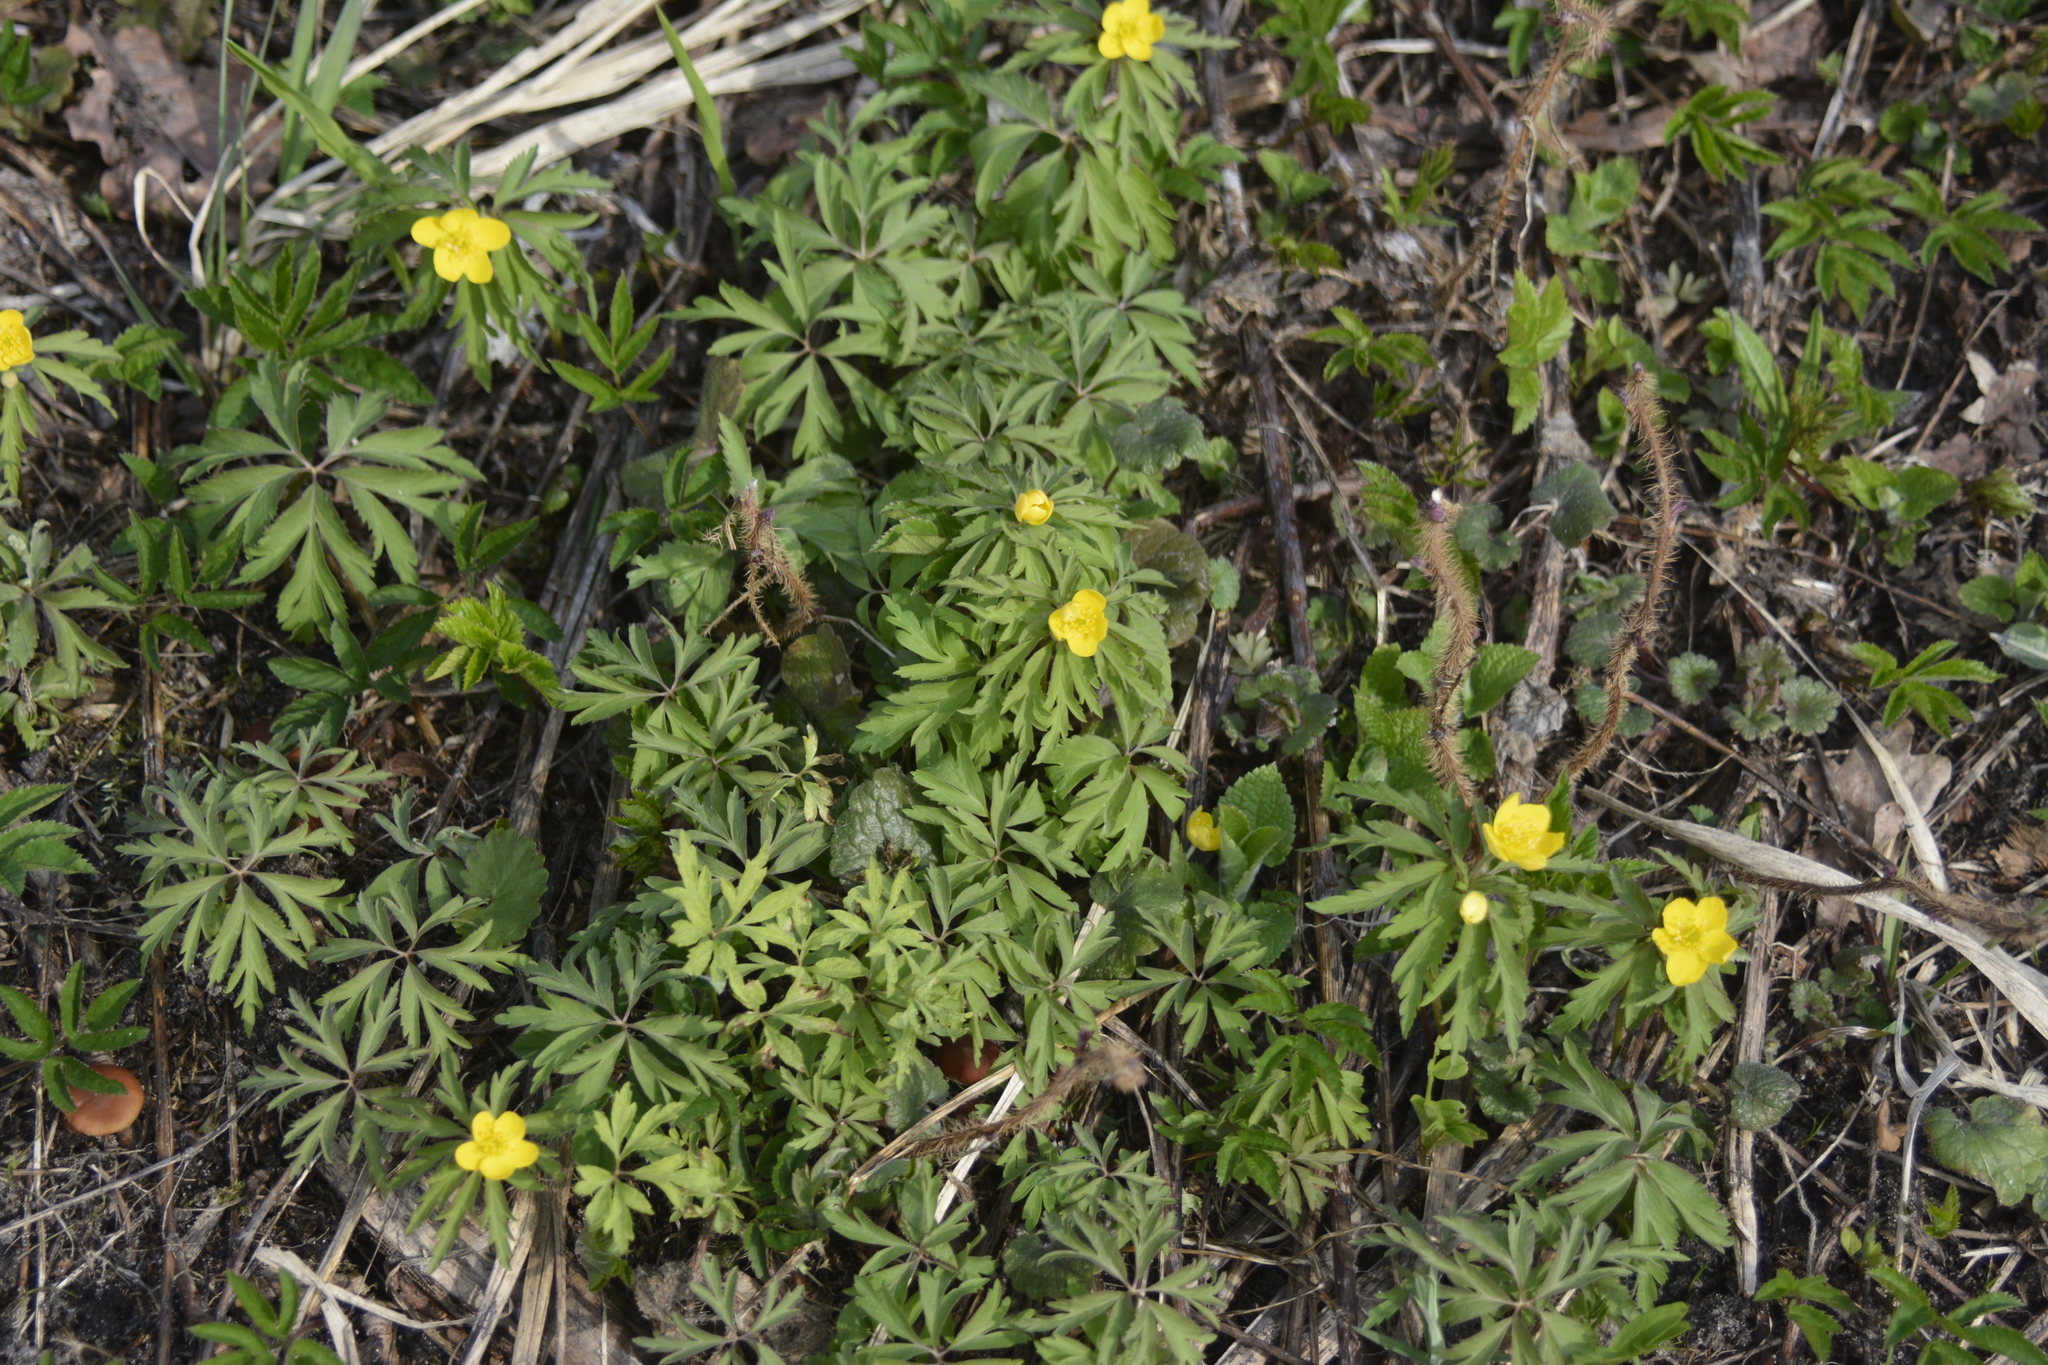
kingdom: Plantae
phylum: Tracheophyta
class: Magnoliopsida
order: Ranunculales
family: Ranunculaceae
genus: Anemone
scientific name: Anemone ranunculoides
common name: Yellow anemone
